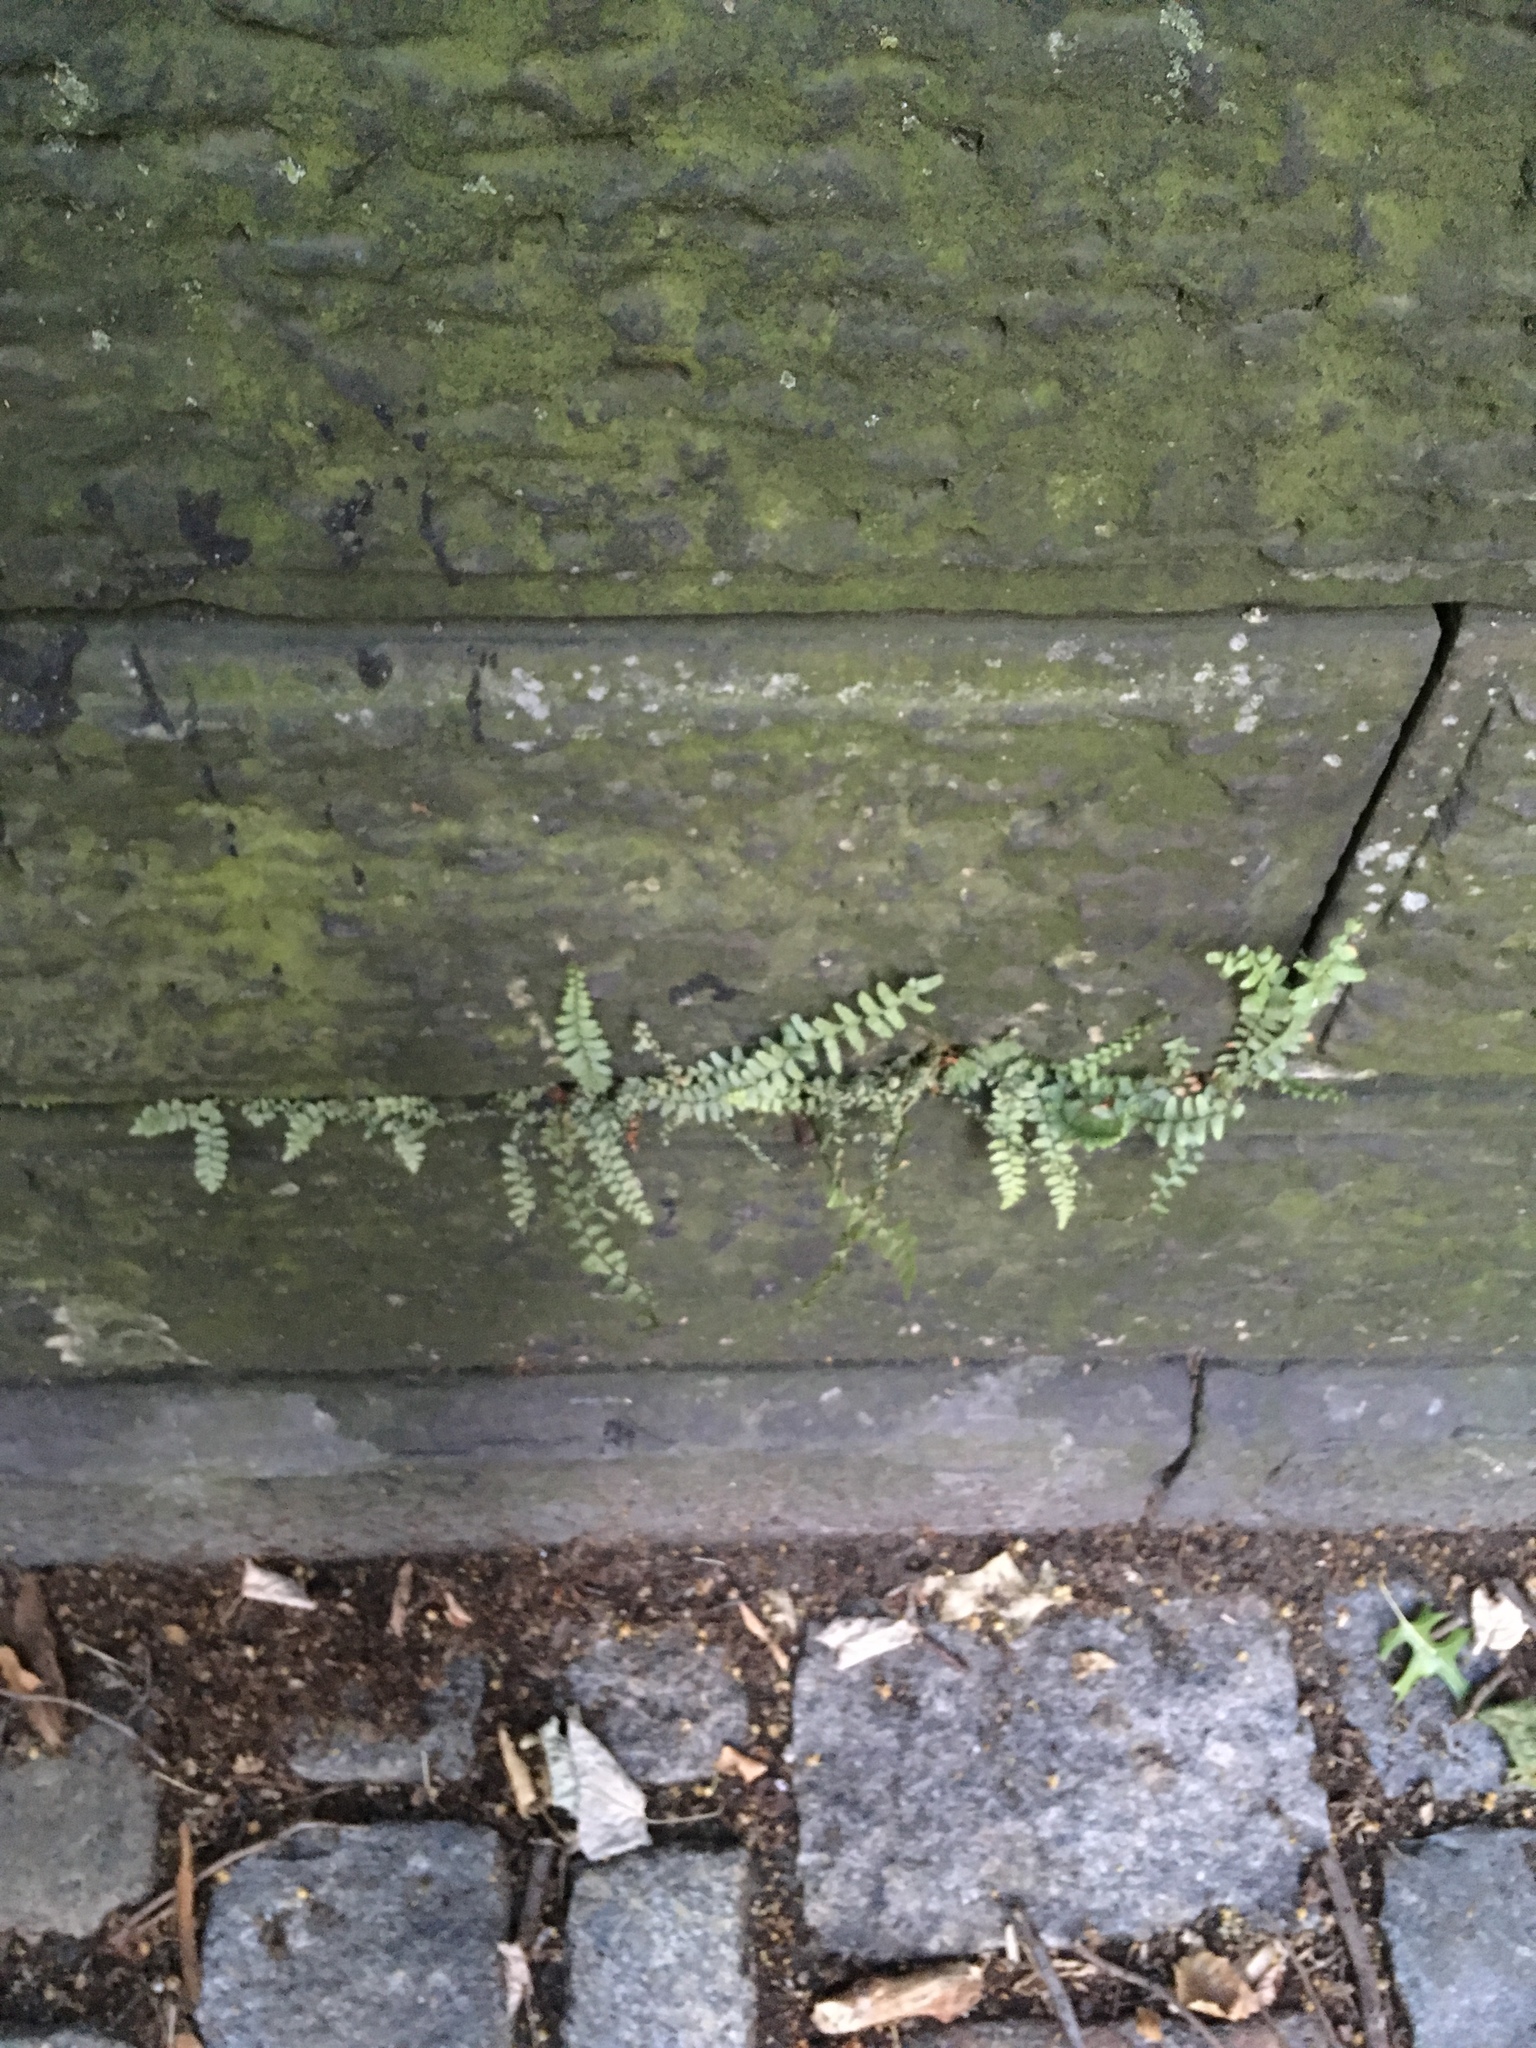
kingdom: Plantae
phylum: Tracheophyta
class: Polypodiopsida
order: Polypodiales
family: Aspleniaceae
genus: Asplenium
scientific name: Asplenium platyneuron
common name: Ebony spleenwort
